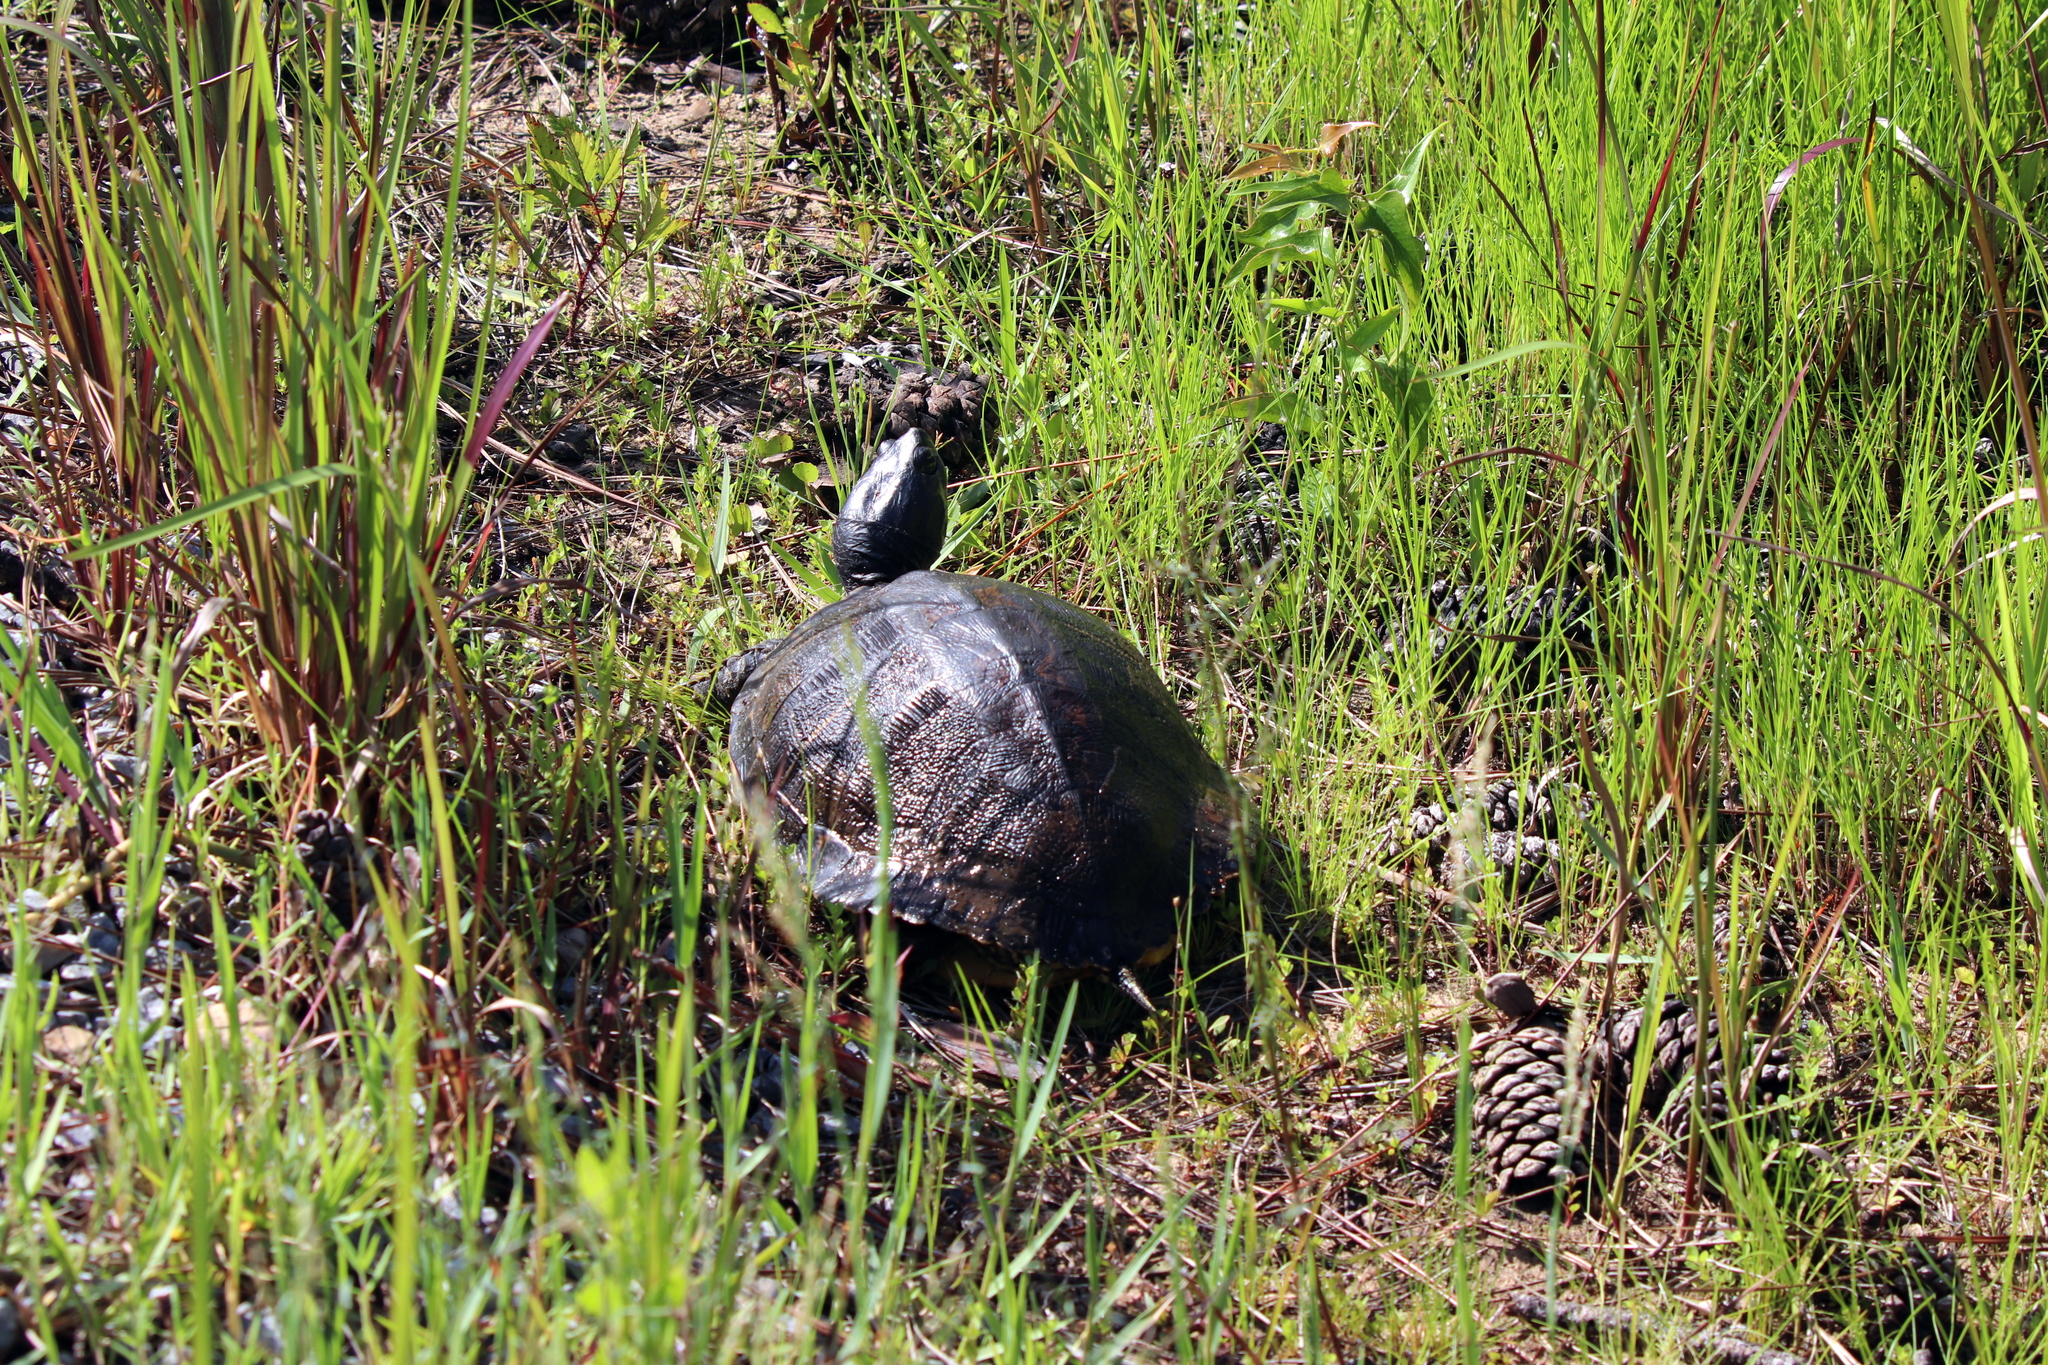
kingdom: Animalia
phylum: Chordata
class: Testudines
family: Emydidae
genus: Trachemys
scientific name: Trachemys scripta
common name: Slider
